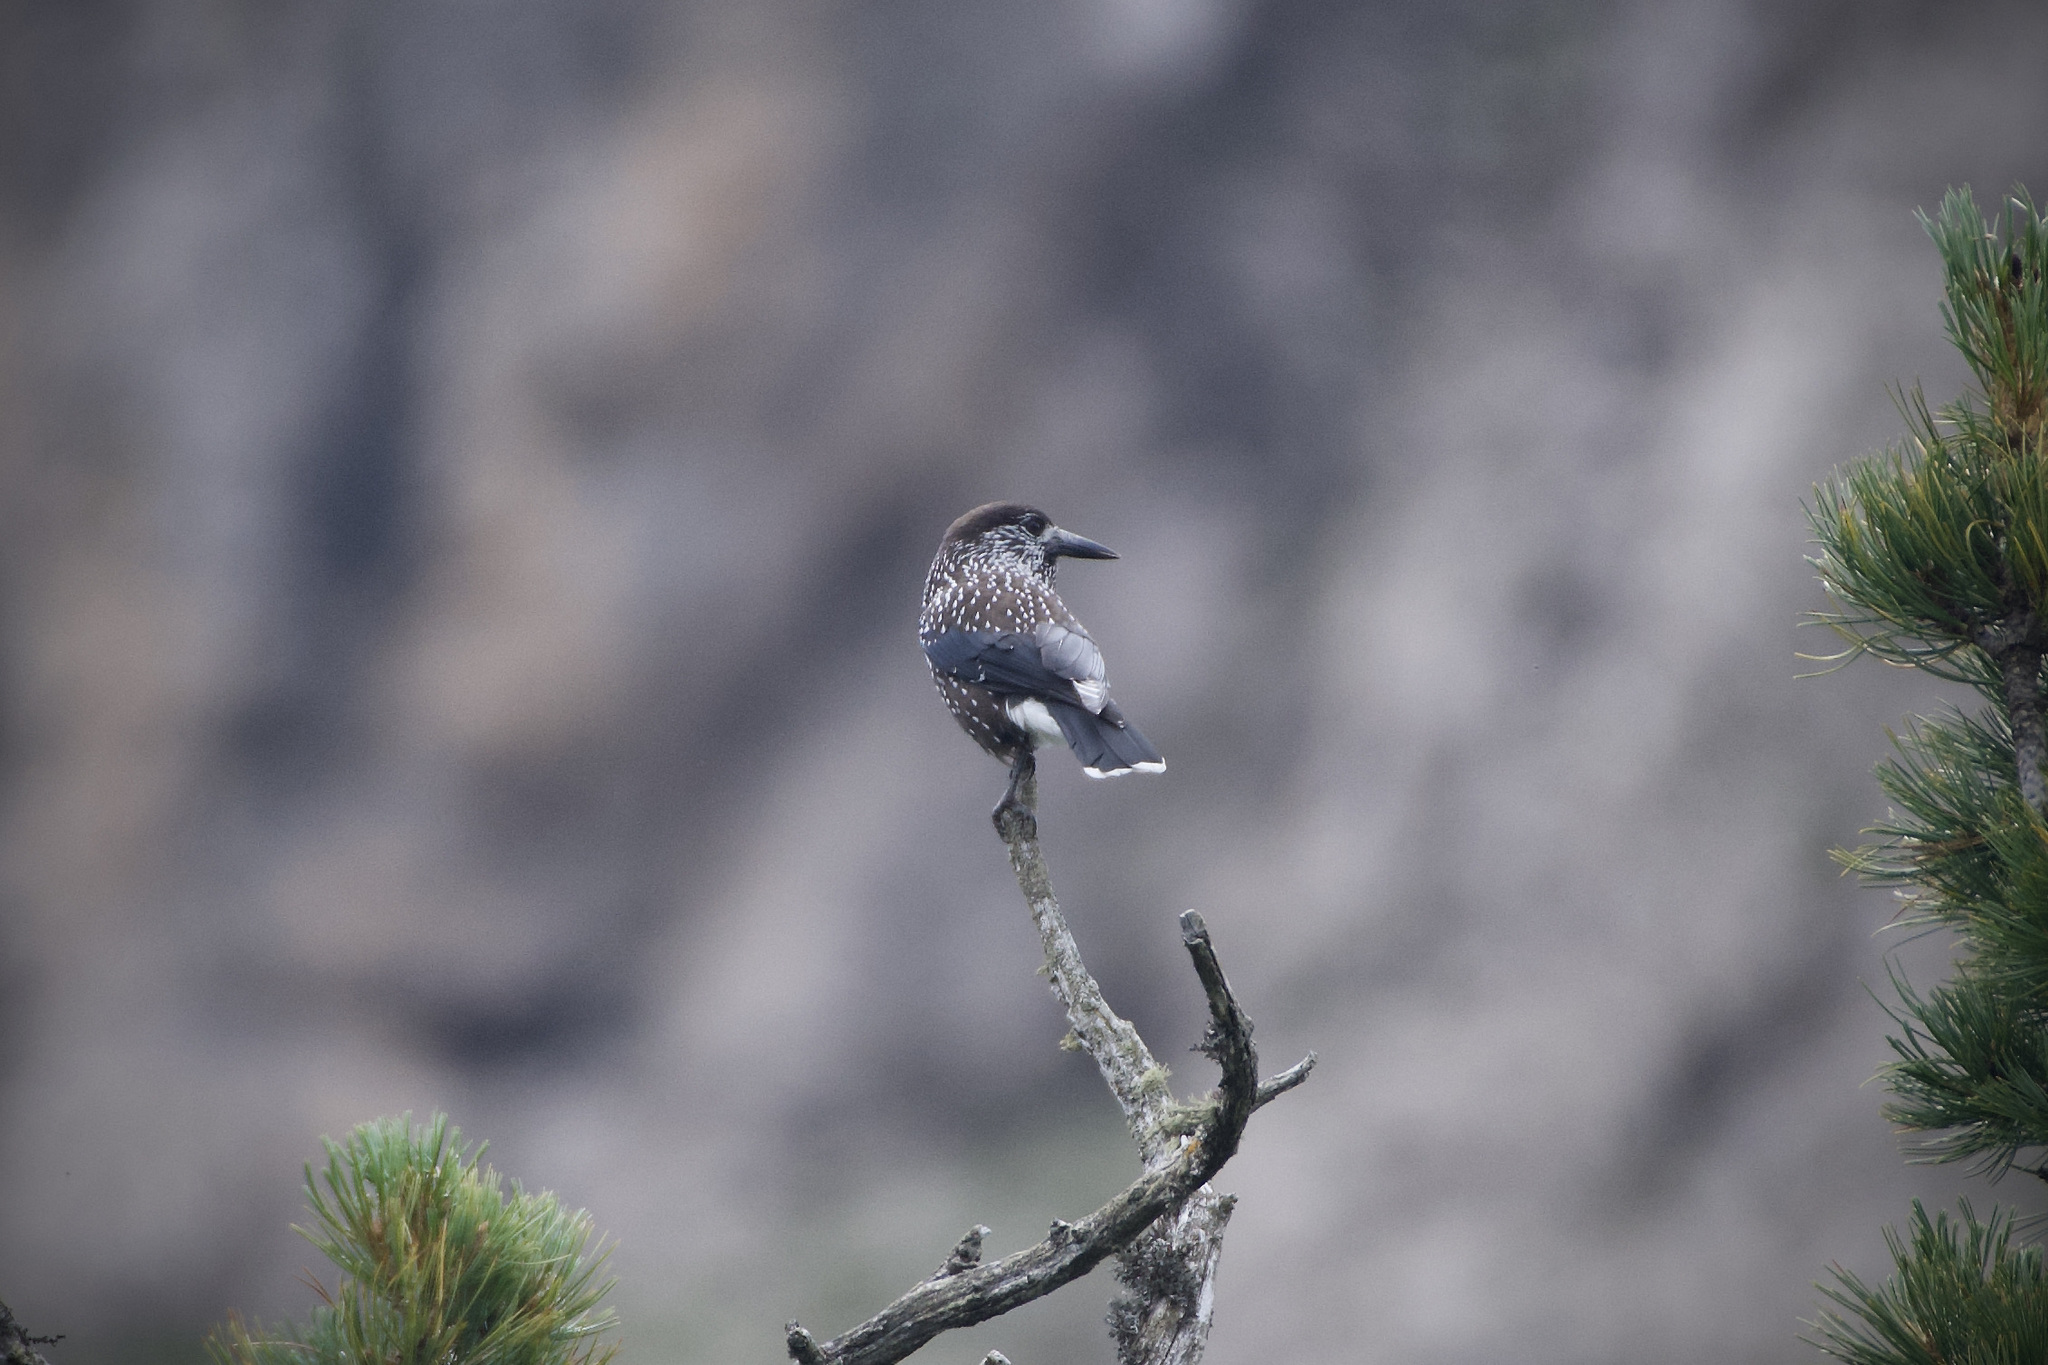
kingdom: Animalia
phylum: Chordata
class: Aves
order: Passeriformes
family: Corvidae
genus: Nucifraga
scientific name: Nucifraga caryocatactes
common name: Spotted nutcracker
